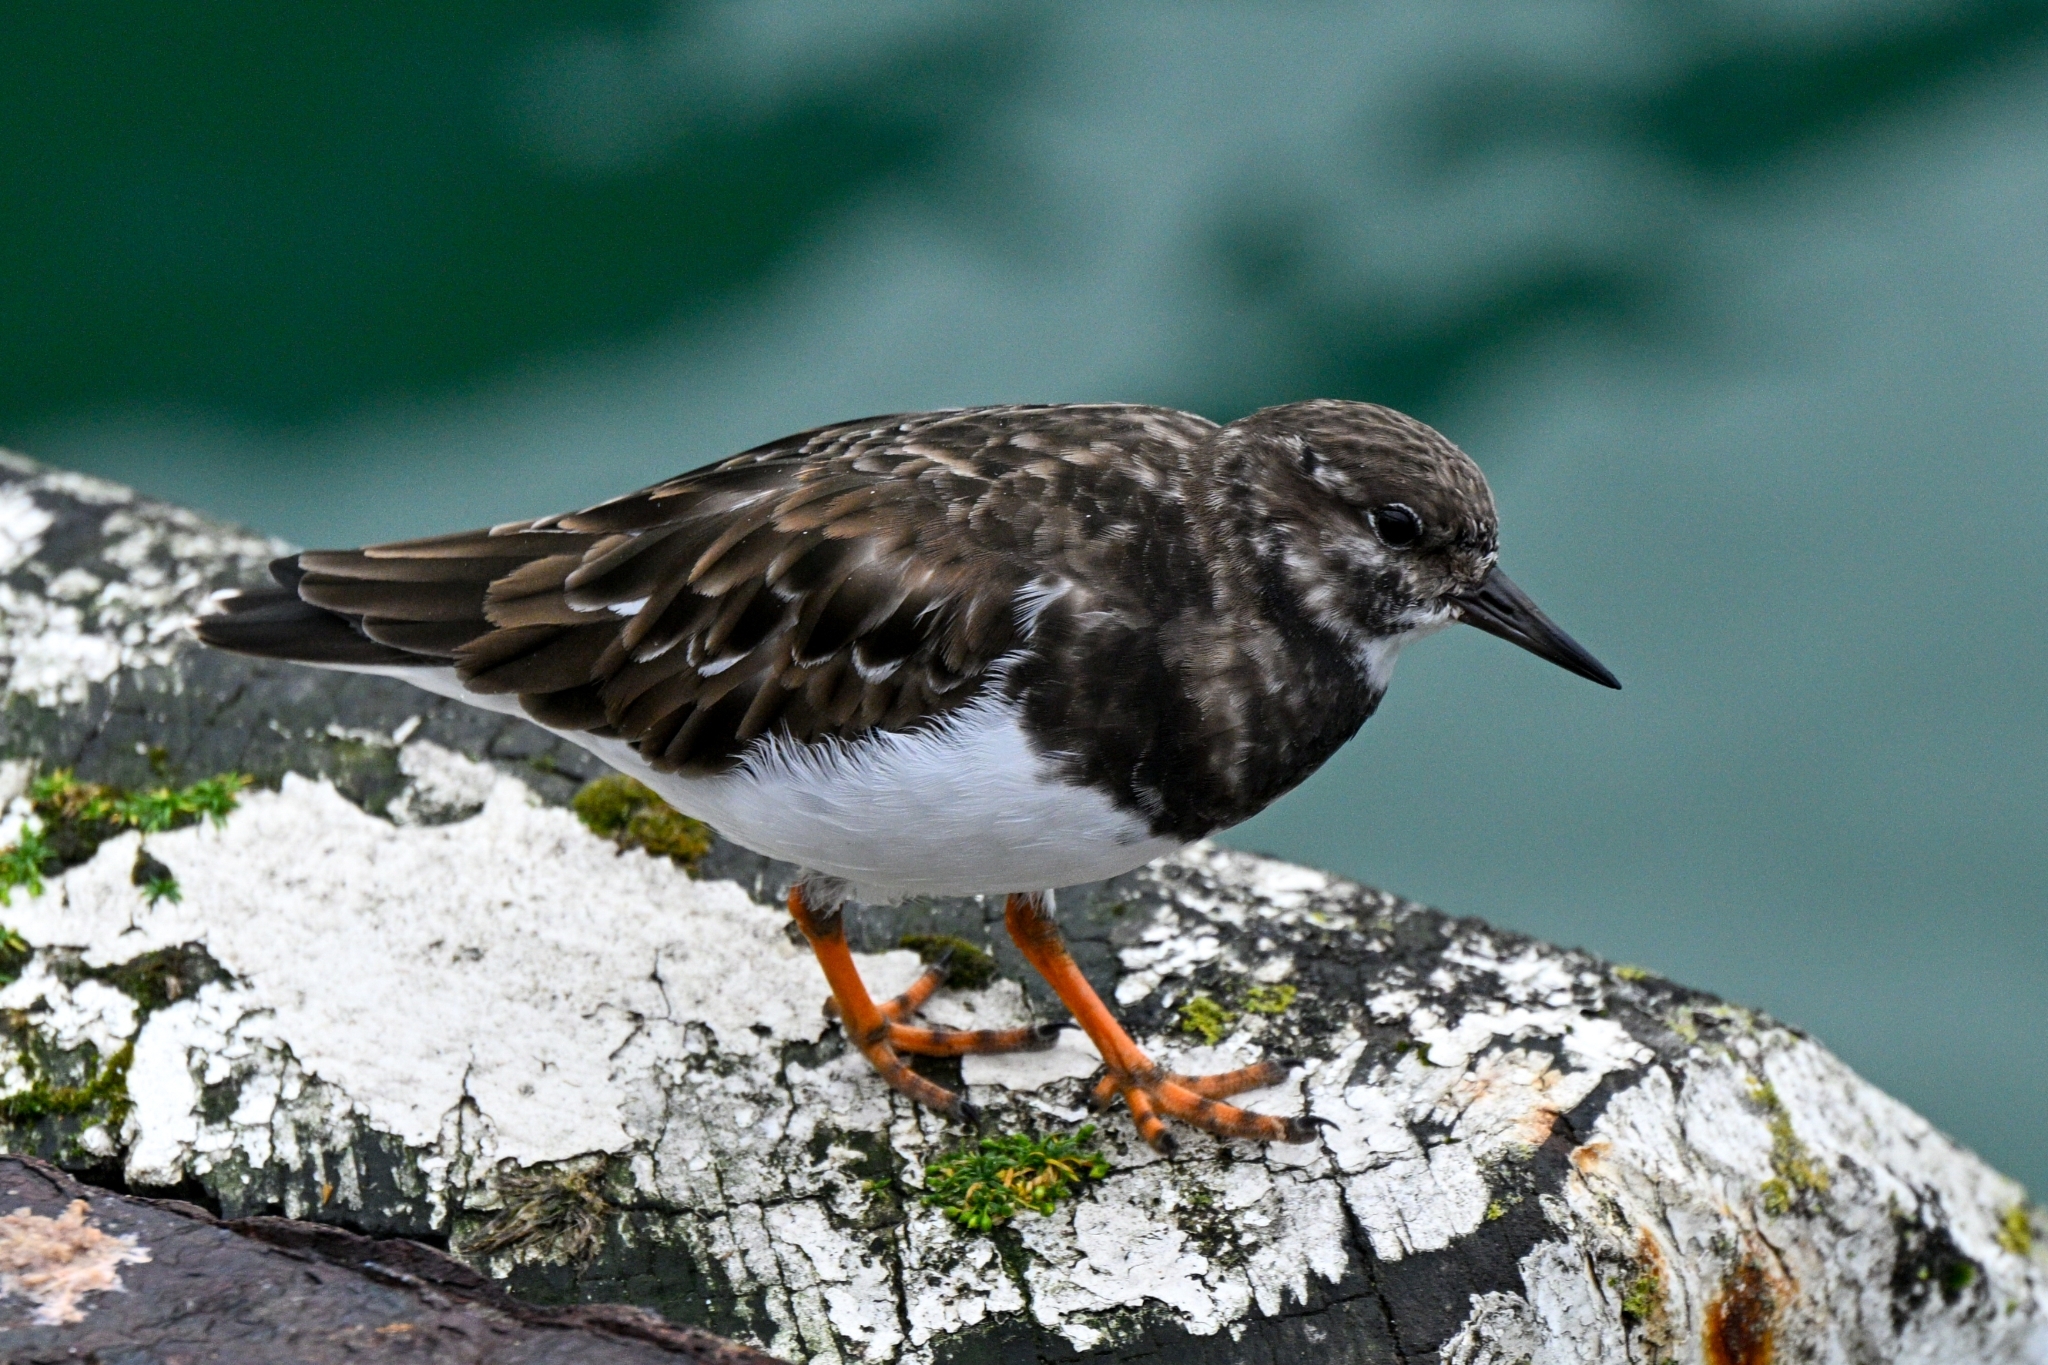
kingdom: Animalia
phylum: Chordata
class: Aves
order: Charadriiformes
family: Scolopacidae
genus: Arenaria
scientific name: Arenaria interpres
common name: Ruddy turnstone
